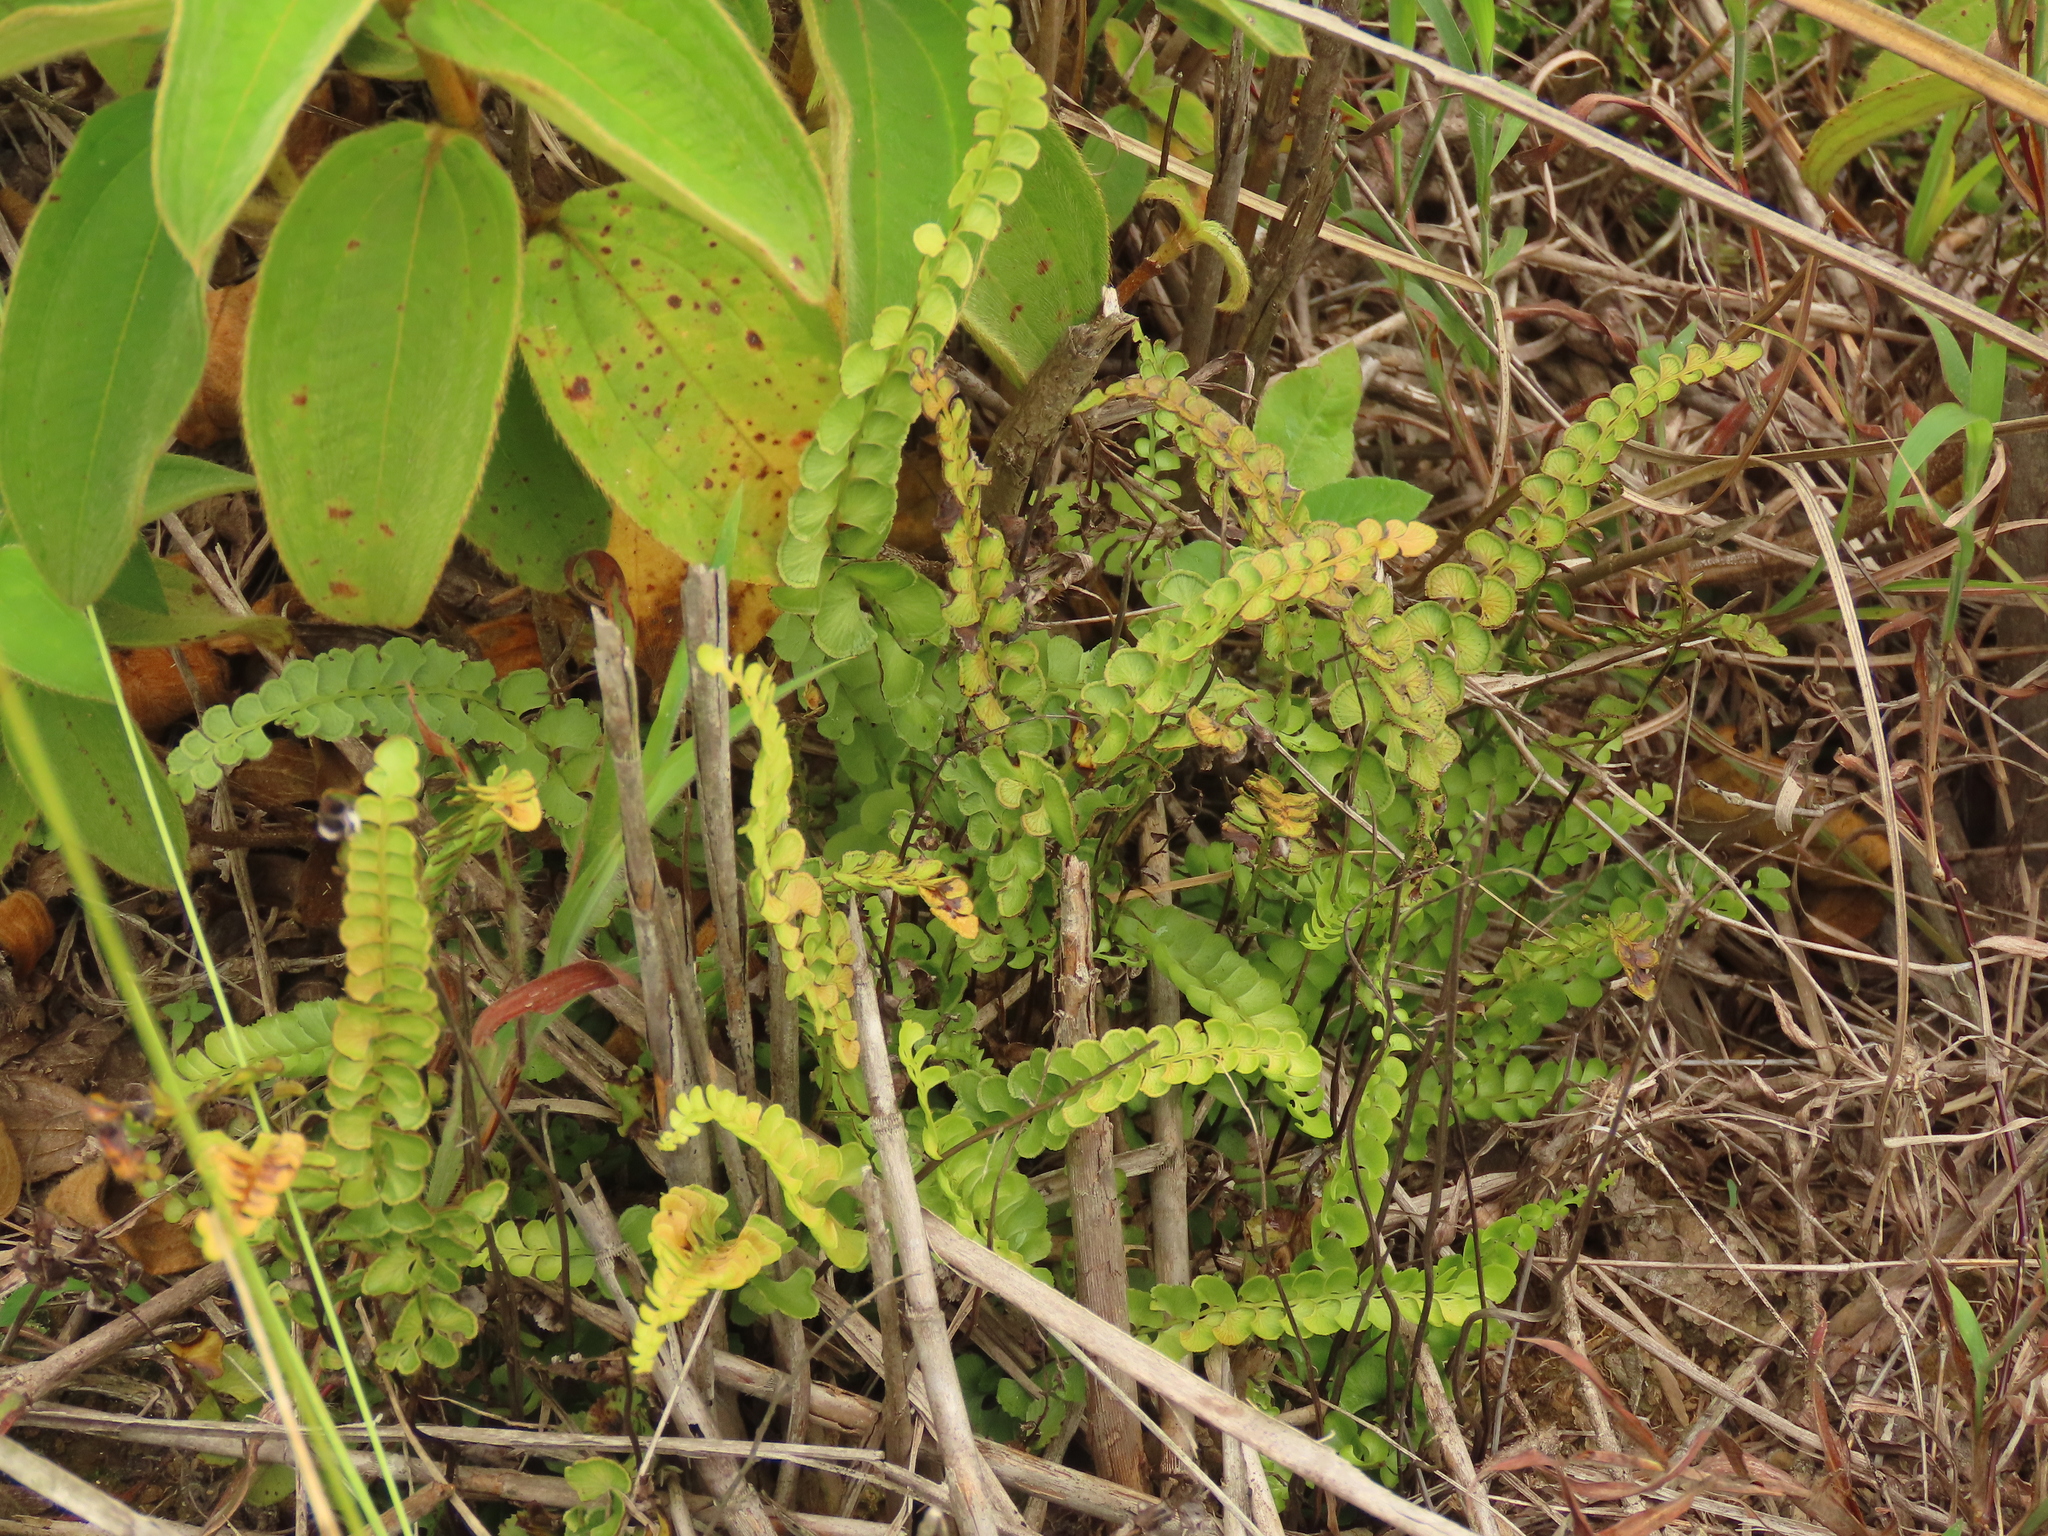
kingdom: Plantae
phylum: Tracheophyta
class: Polypodiopsida
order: Polypodiales
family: Lindsaeaceae
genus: Lindsaea
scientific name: Lindsaea orbiculata
